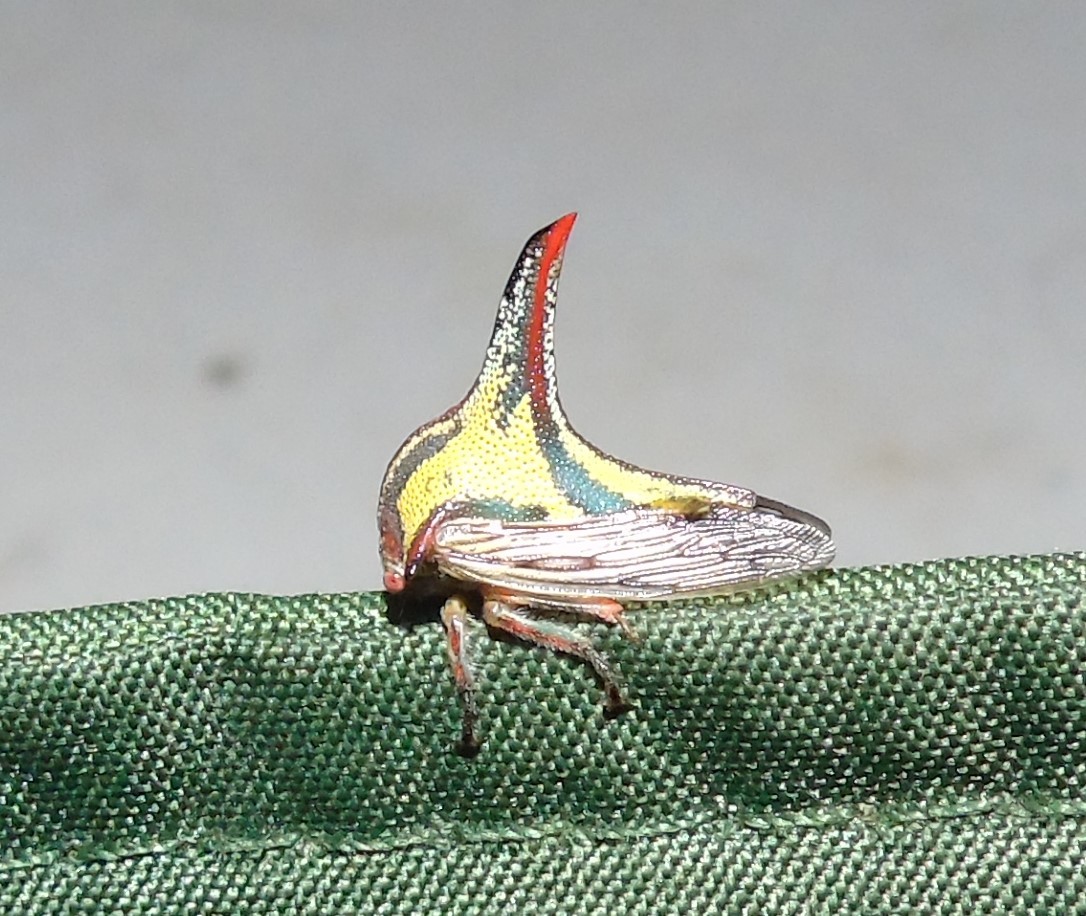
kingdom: Animalia
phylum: Arthropoda
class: Insecta
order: Hemiptera
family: Membracidae
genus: Umbonia
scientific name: Umbonia crassicornis
